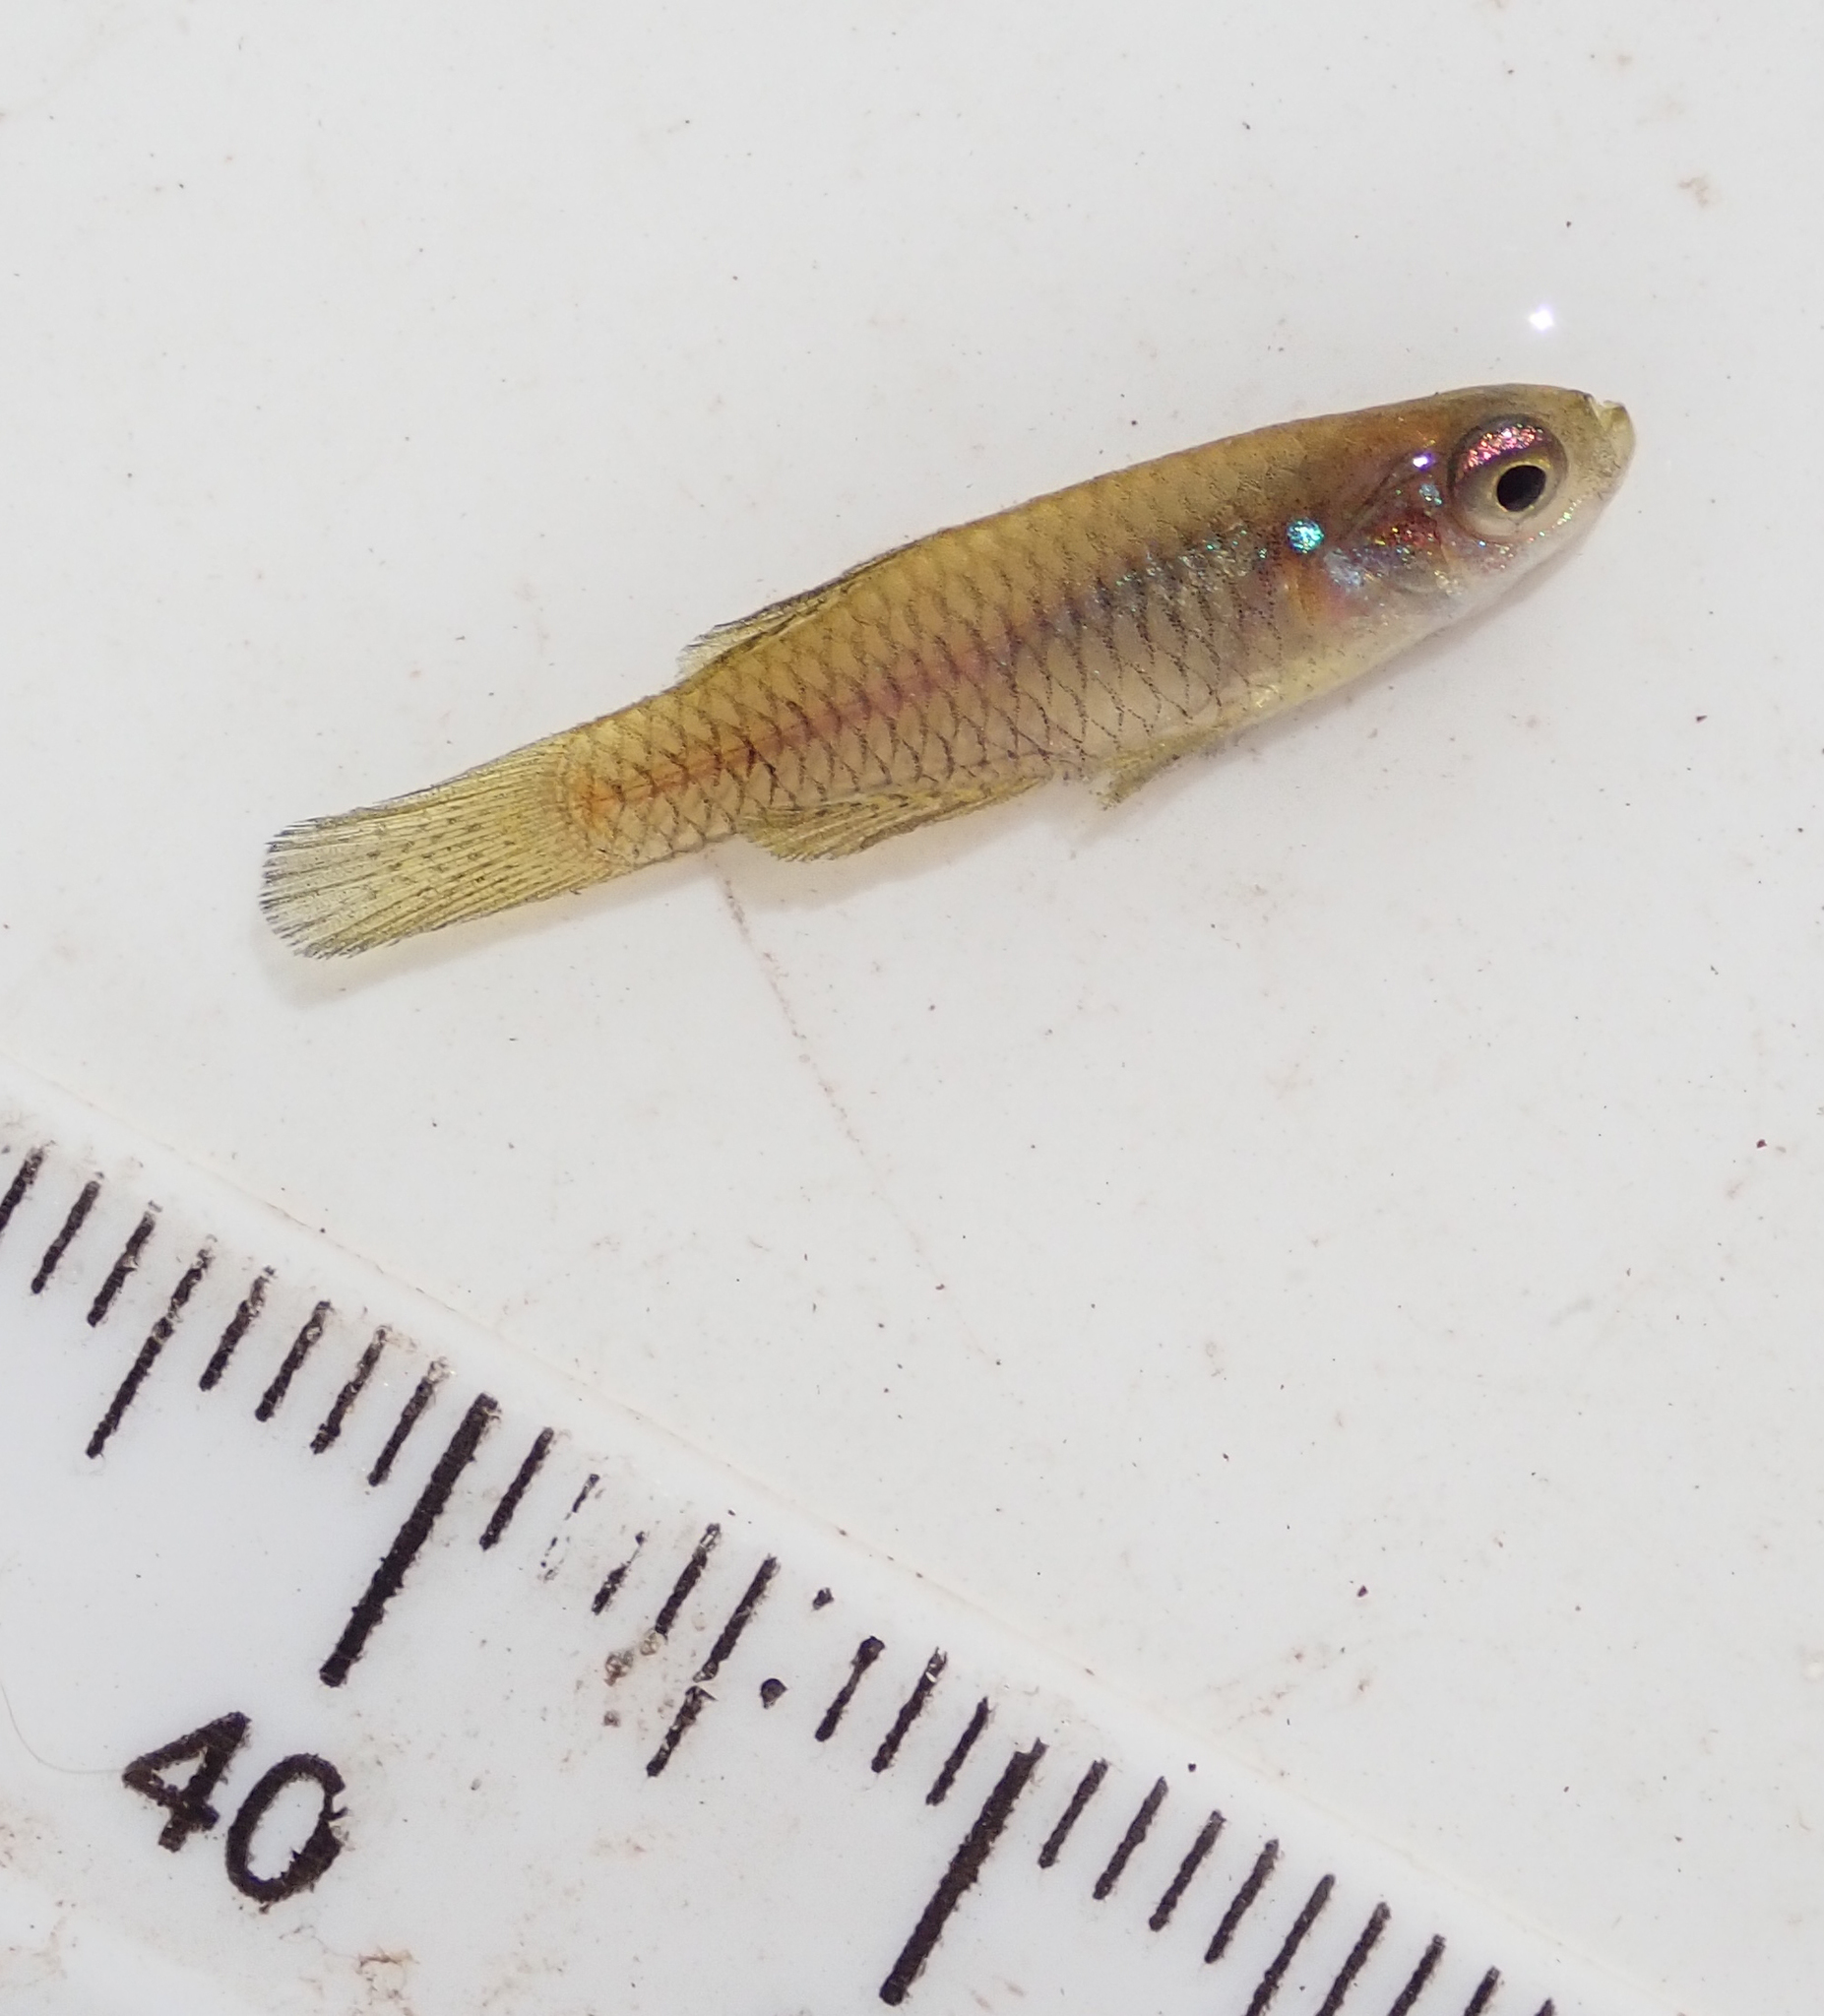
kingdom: Animalia
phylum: Chordata
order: Cyprinodontiformes
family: Poeciliidae
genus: Micropanchax
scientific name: Micropanchax hutereaui
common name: Meshscaled topminnow
